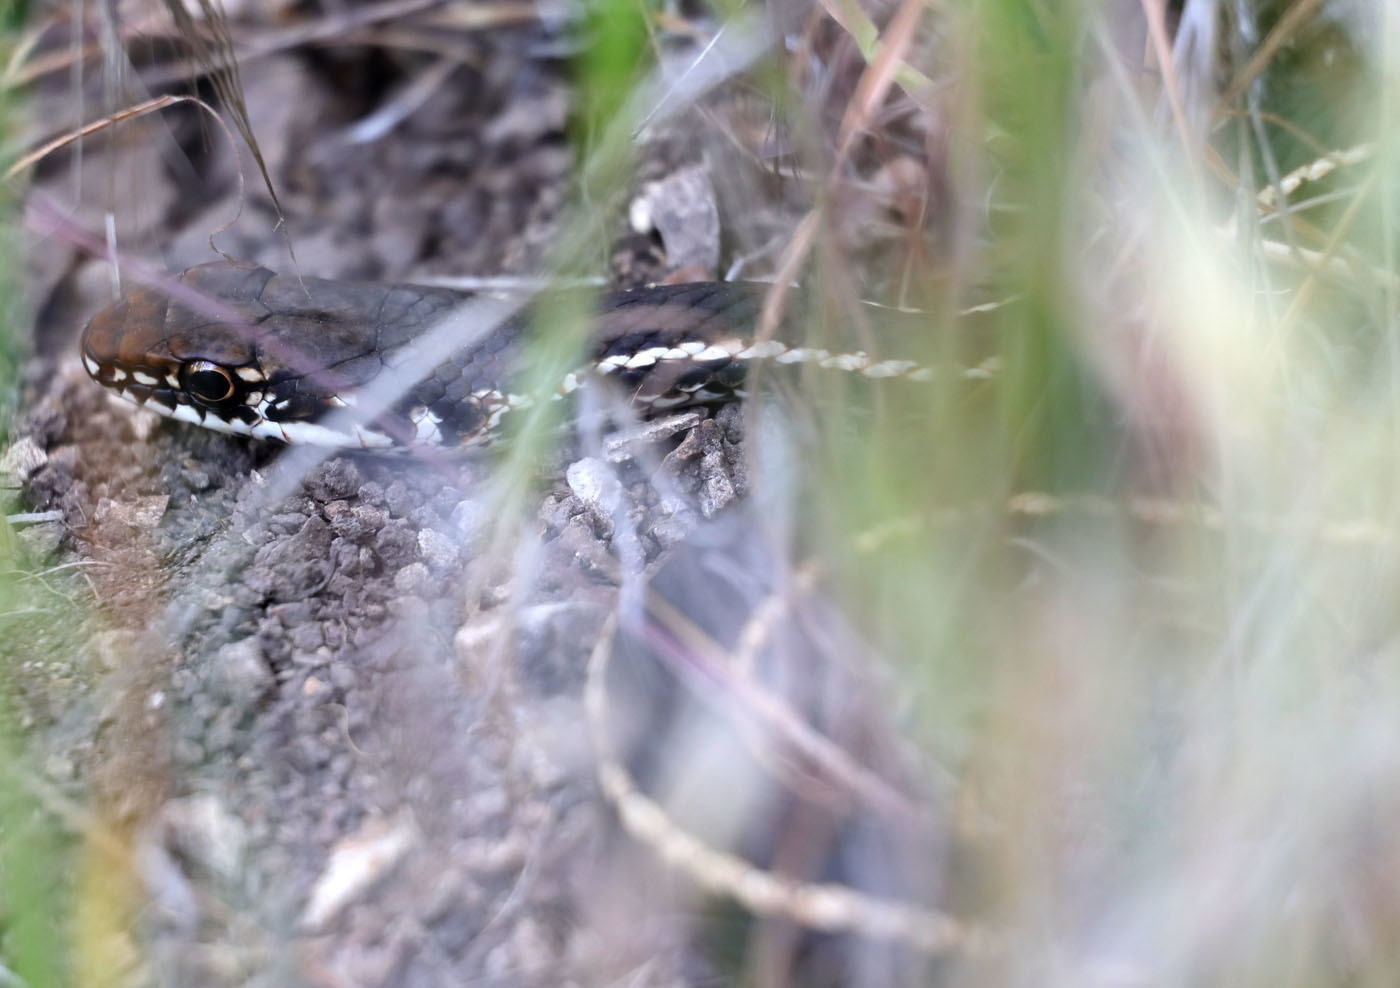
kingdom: Animalia
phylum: Chordata
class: Squamata
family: Colubridae
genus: Masticophis
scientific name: Masticophis lateralis
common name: Striped racer
